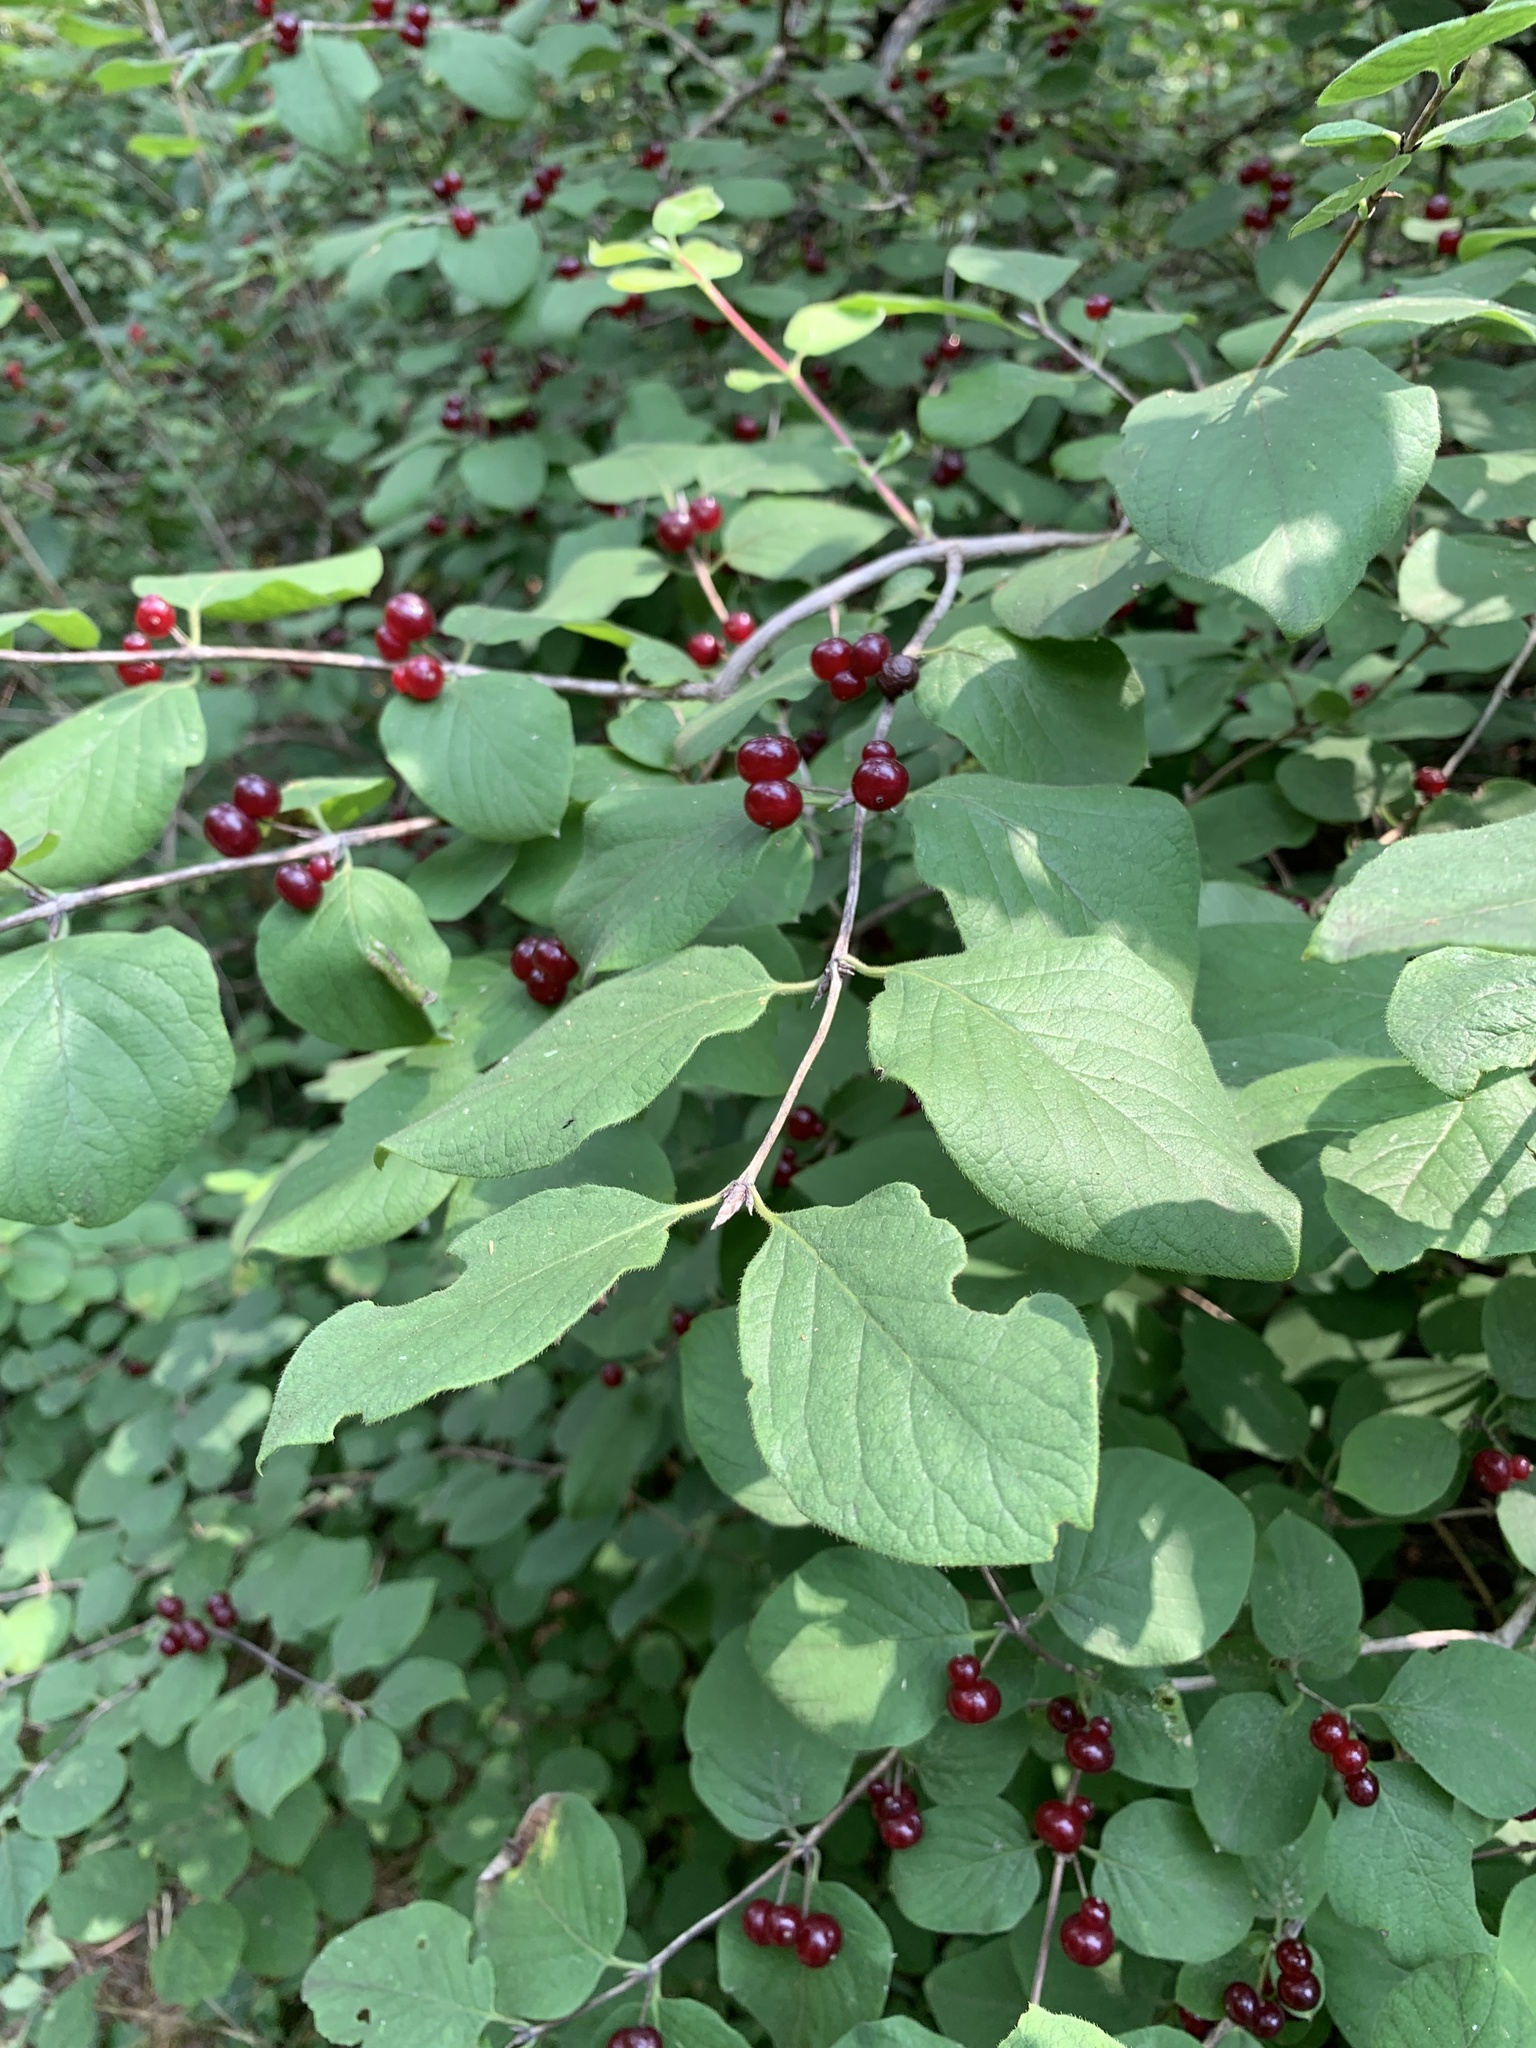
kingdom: Plantae
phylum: Tracheophyta
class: Magnoliopsida
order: Dipsacales
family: Caprifoliaceae
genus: Lonicera
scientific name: Lonicera xylosteum
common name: Fly honeysuckle
